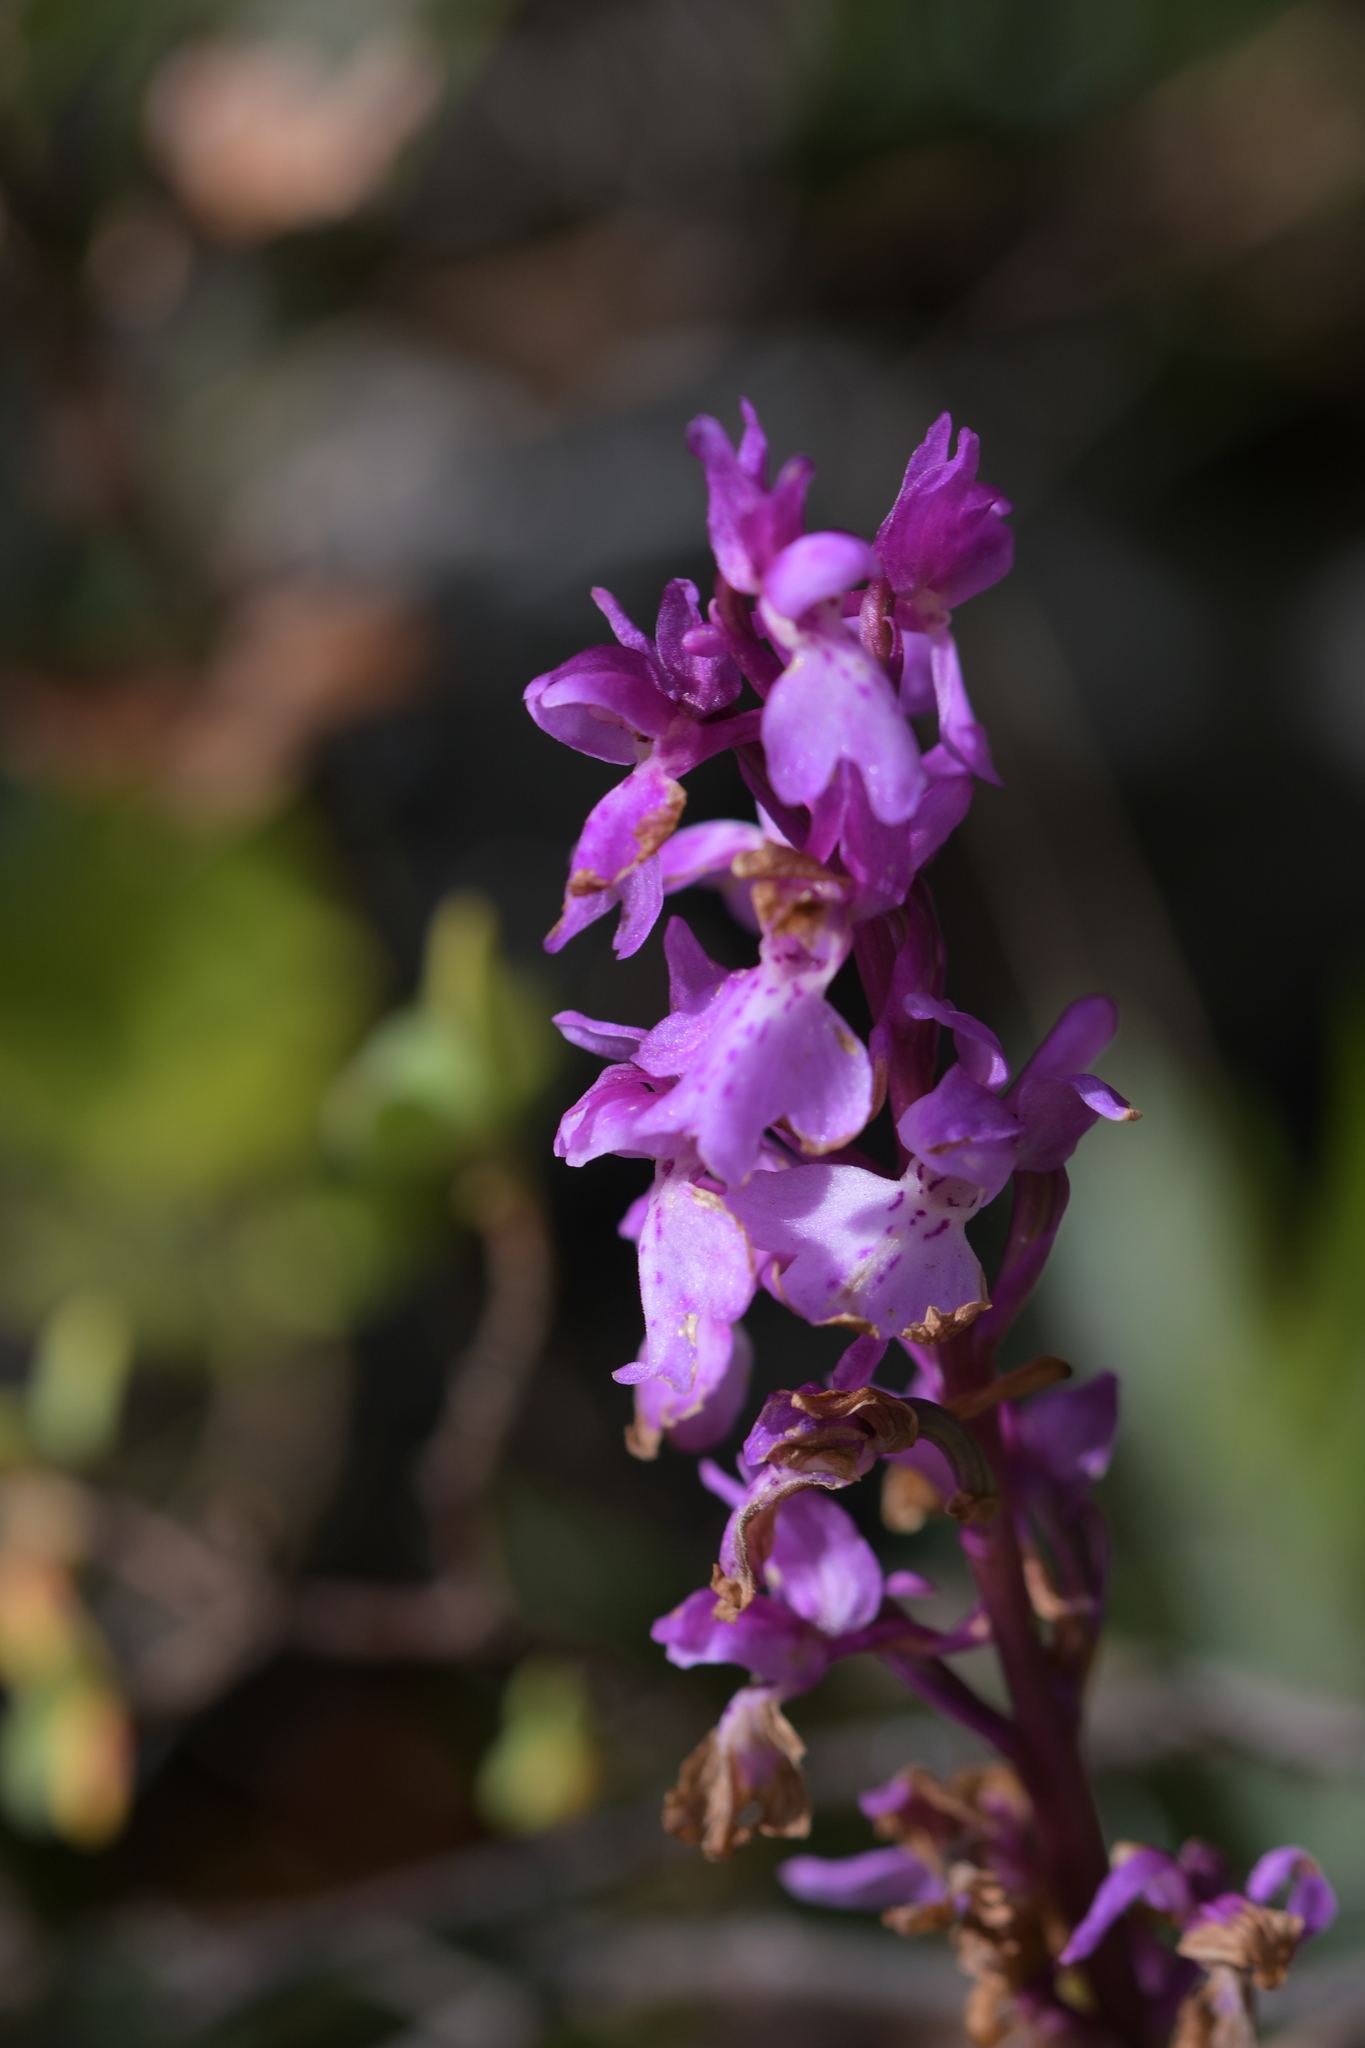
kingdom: Plantae
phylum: Tracheophyta
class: Liliopsida
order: Asparagales
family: Orchidaceae
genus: Orchis
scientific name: Orchis mascula
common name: Early-purple orchid
